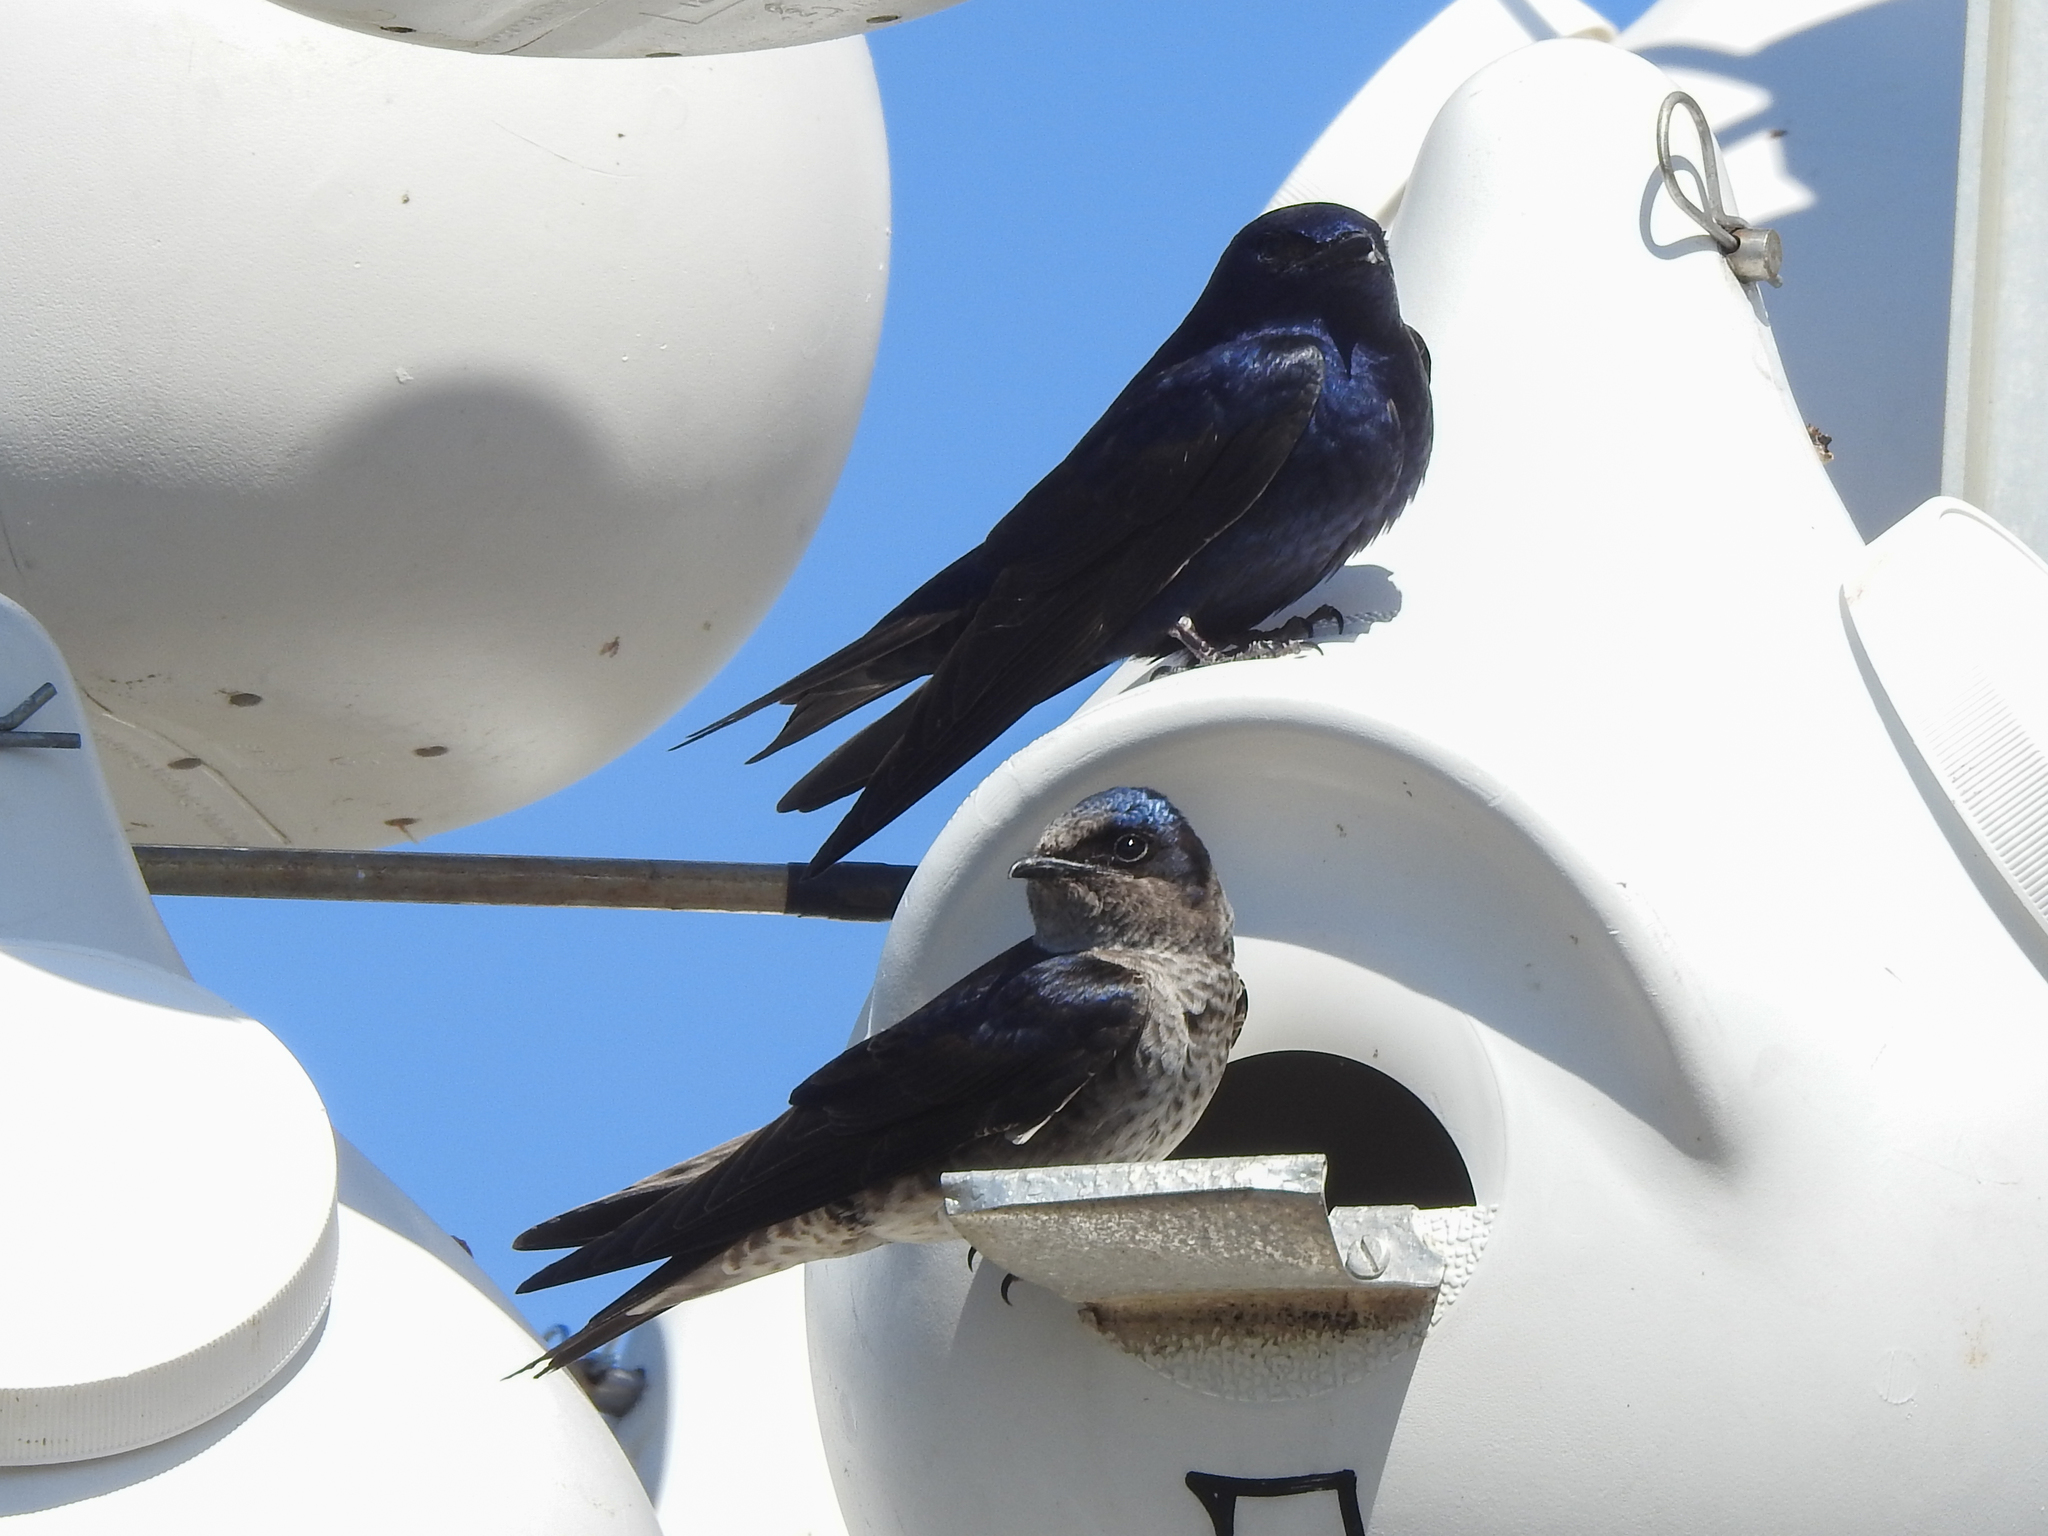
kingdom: Animalia
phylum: Chordata
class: Aves
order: Passeriformes
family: Hirundinidae
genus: Progne
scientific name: Progne subis
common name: Purple martin
